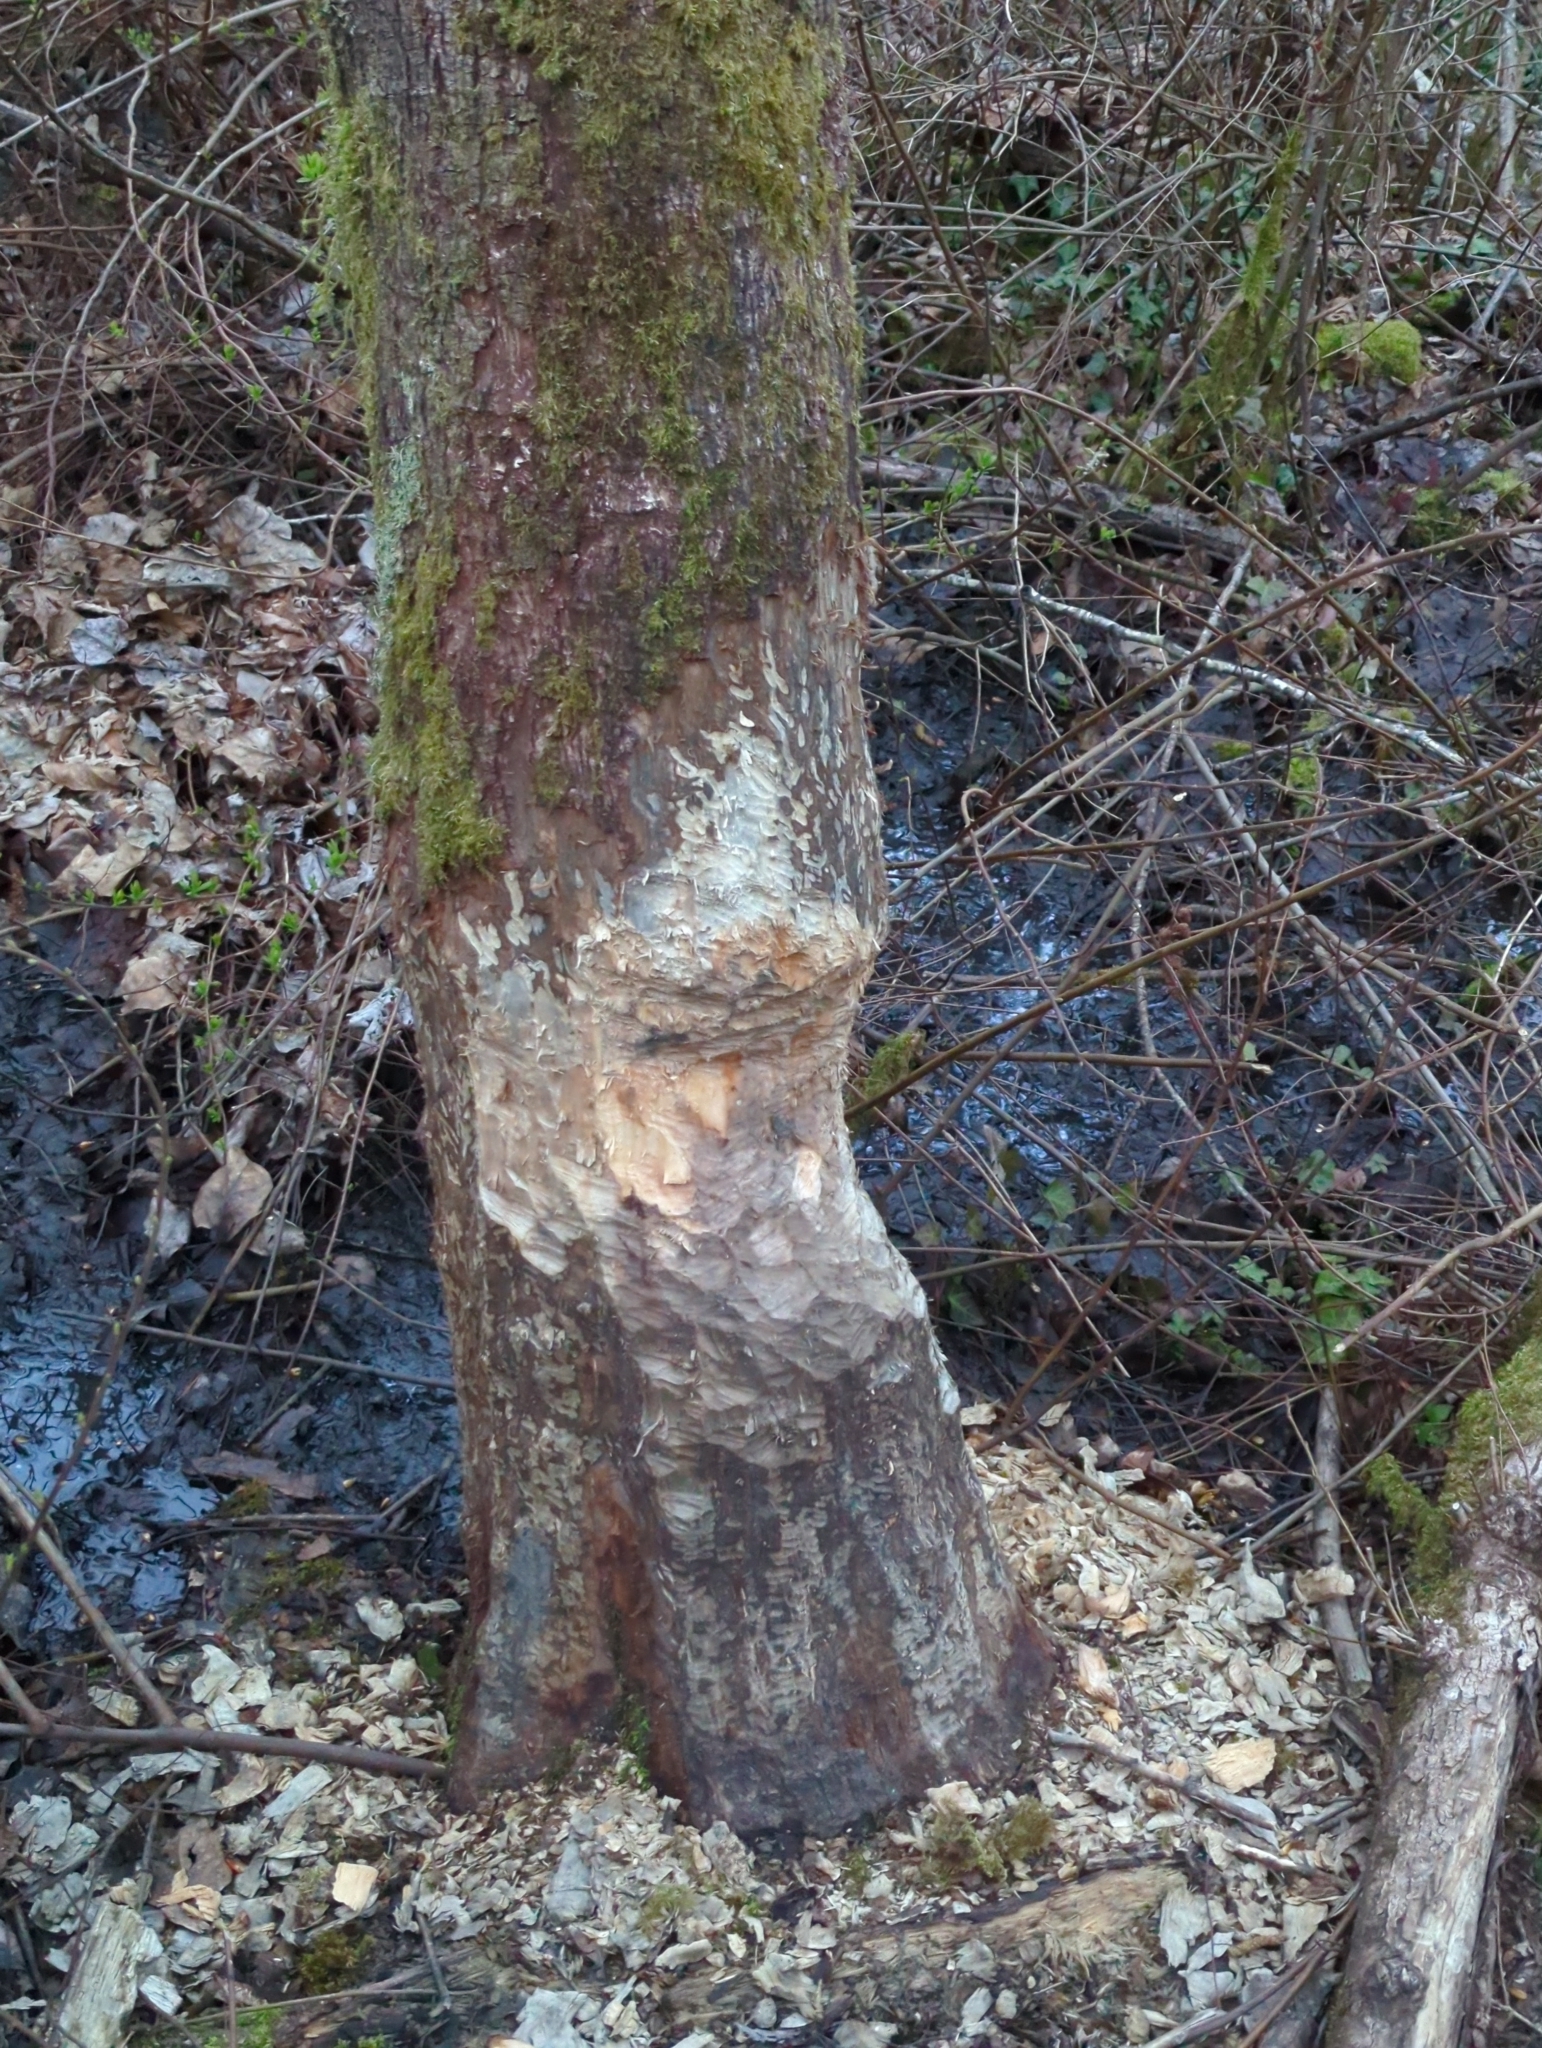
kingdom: Animalia
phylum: Chordata
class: Mammalia
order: Rodentia
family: Castoridae
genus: Castor
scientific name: Castor canadensis
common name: American beaver
